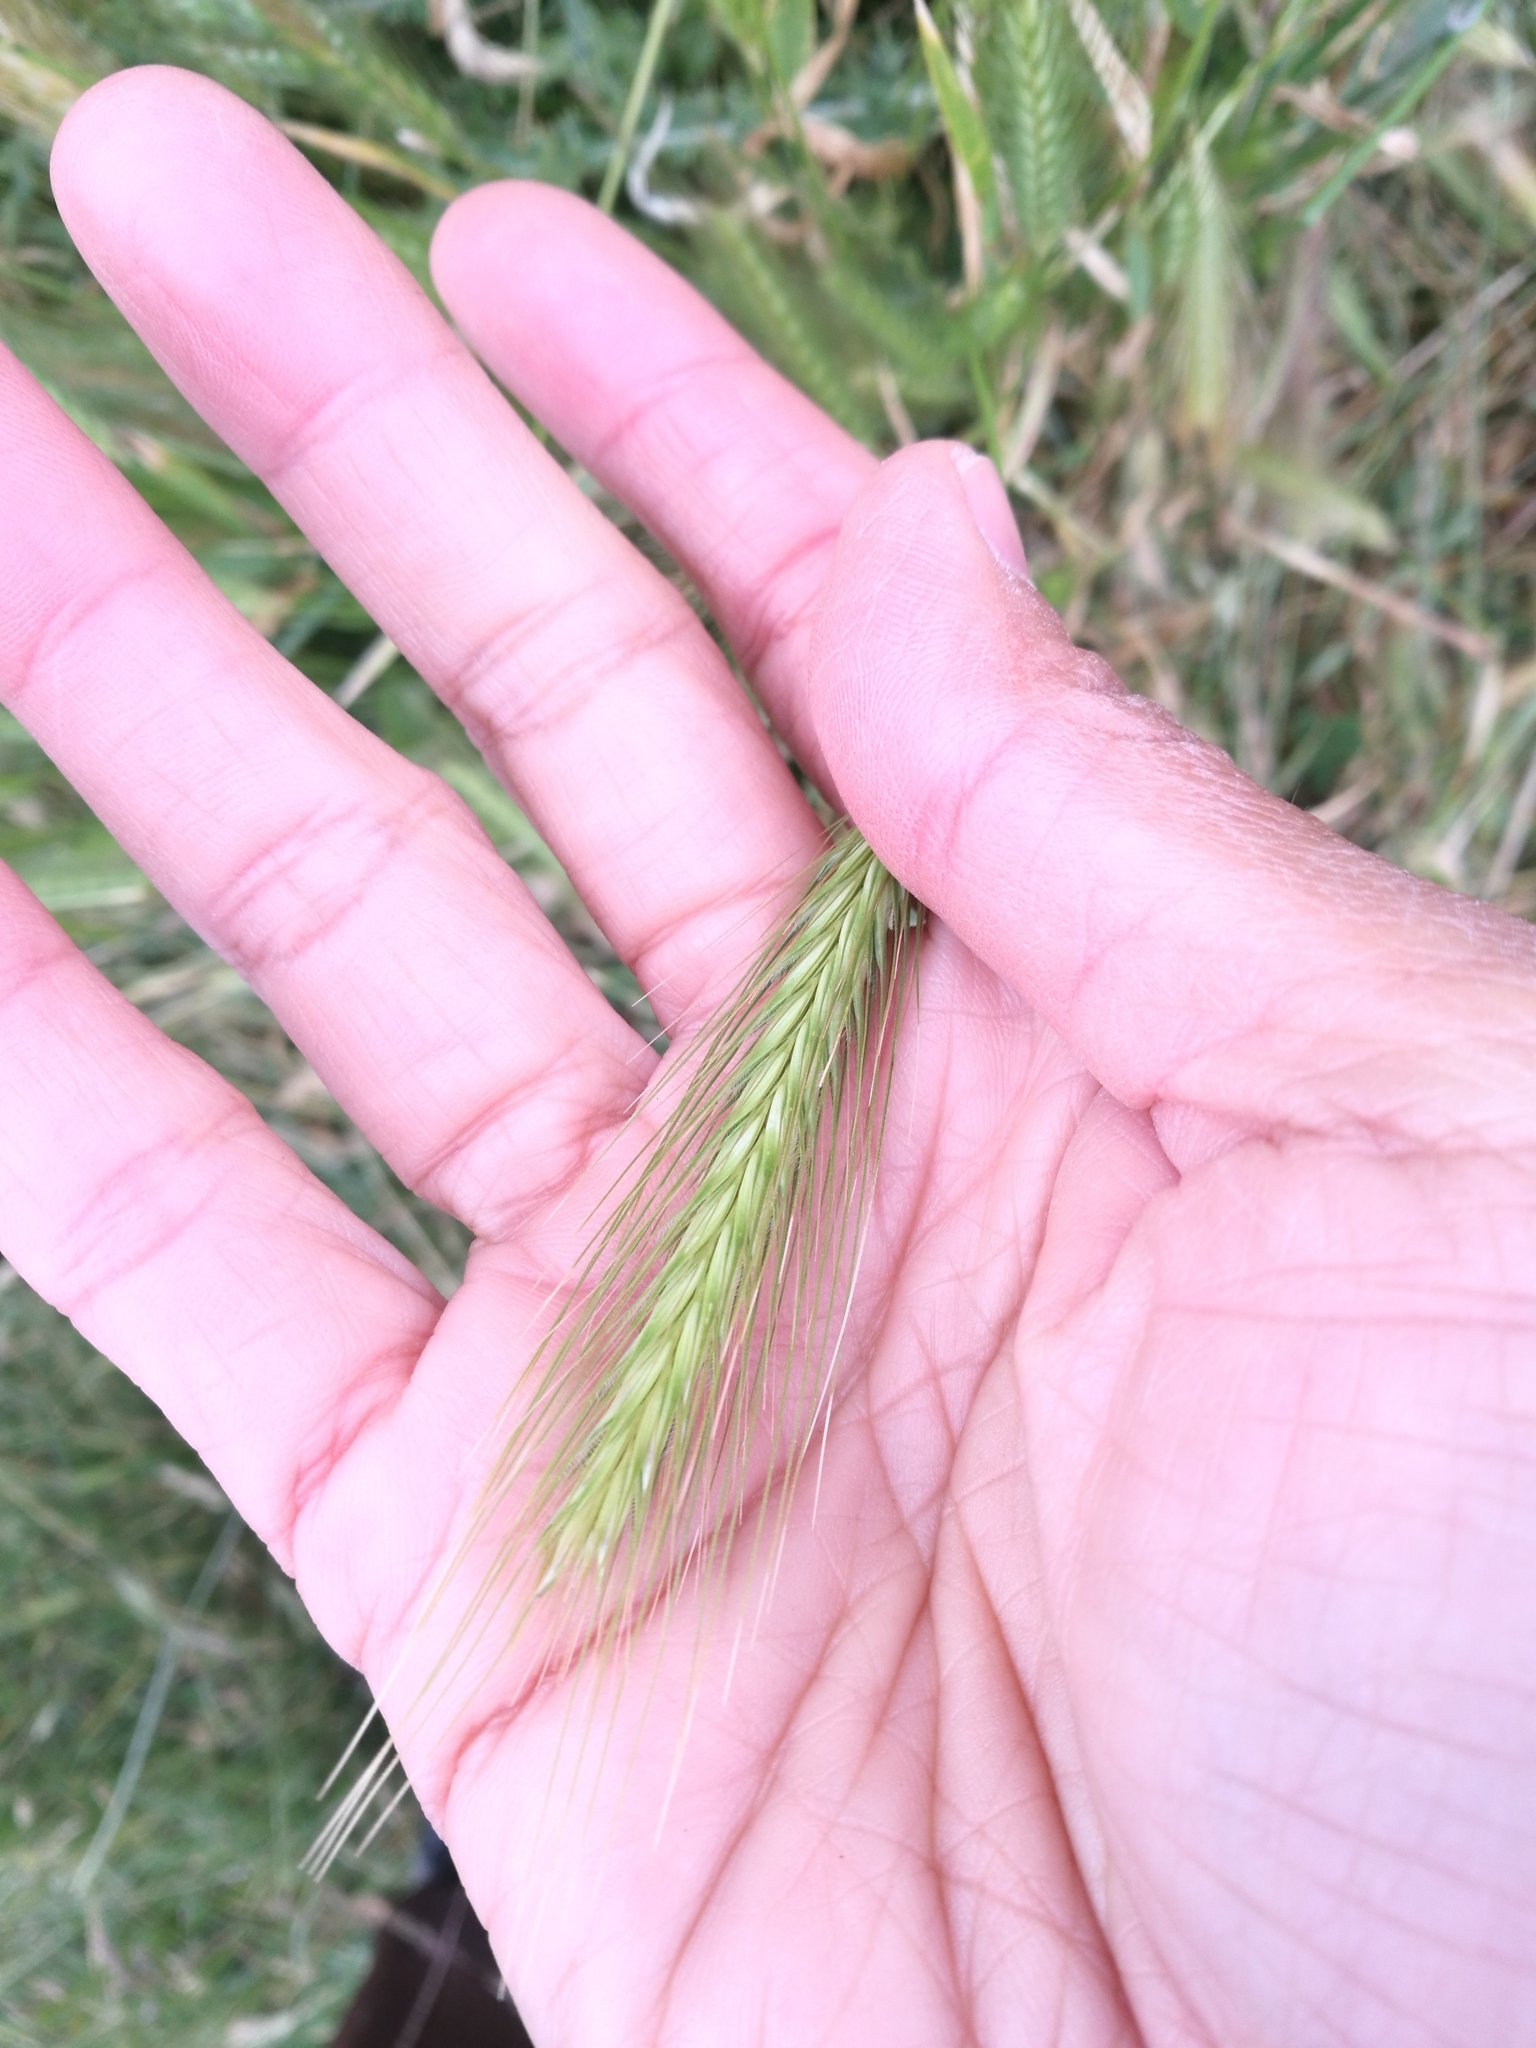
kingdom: Plantae
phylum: Tracheophyta
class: Liliopsida
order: Poales
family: Poaceae
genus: Hordeum
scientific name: Hordeum murinum
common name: Wall barley
